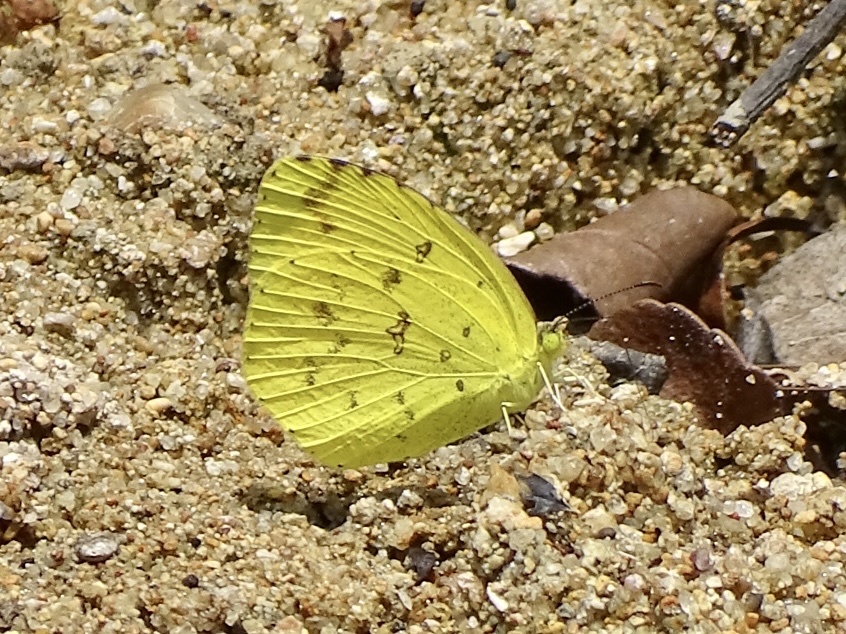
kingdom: Animalia
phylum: Arthropoda
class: Insecta
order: Lepidoptera
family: Pieridae
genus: Eurema
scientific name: Eurema hecabe
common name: Pale grass yellow
